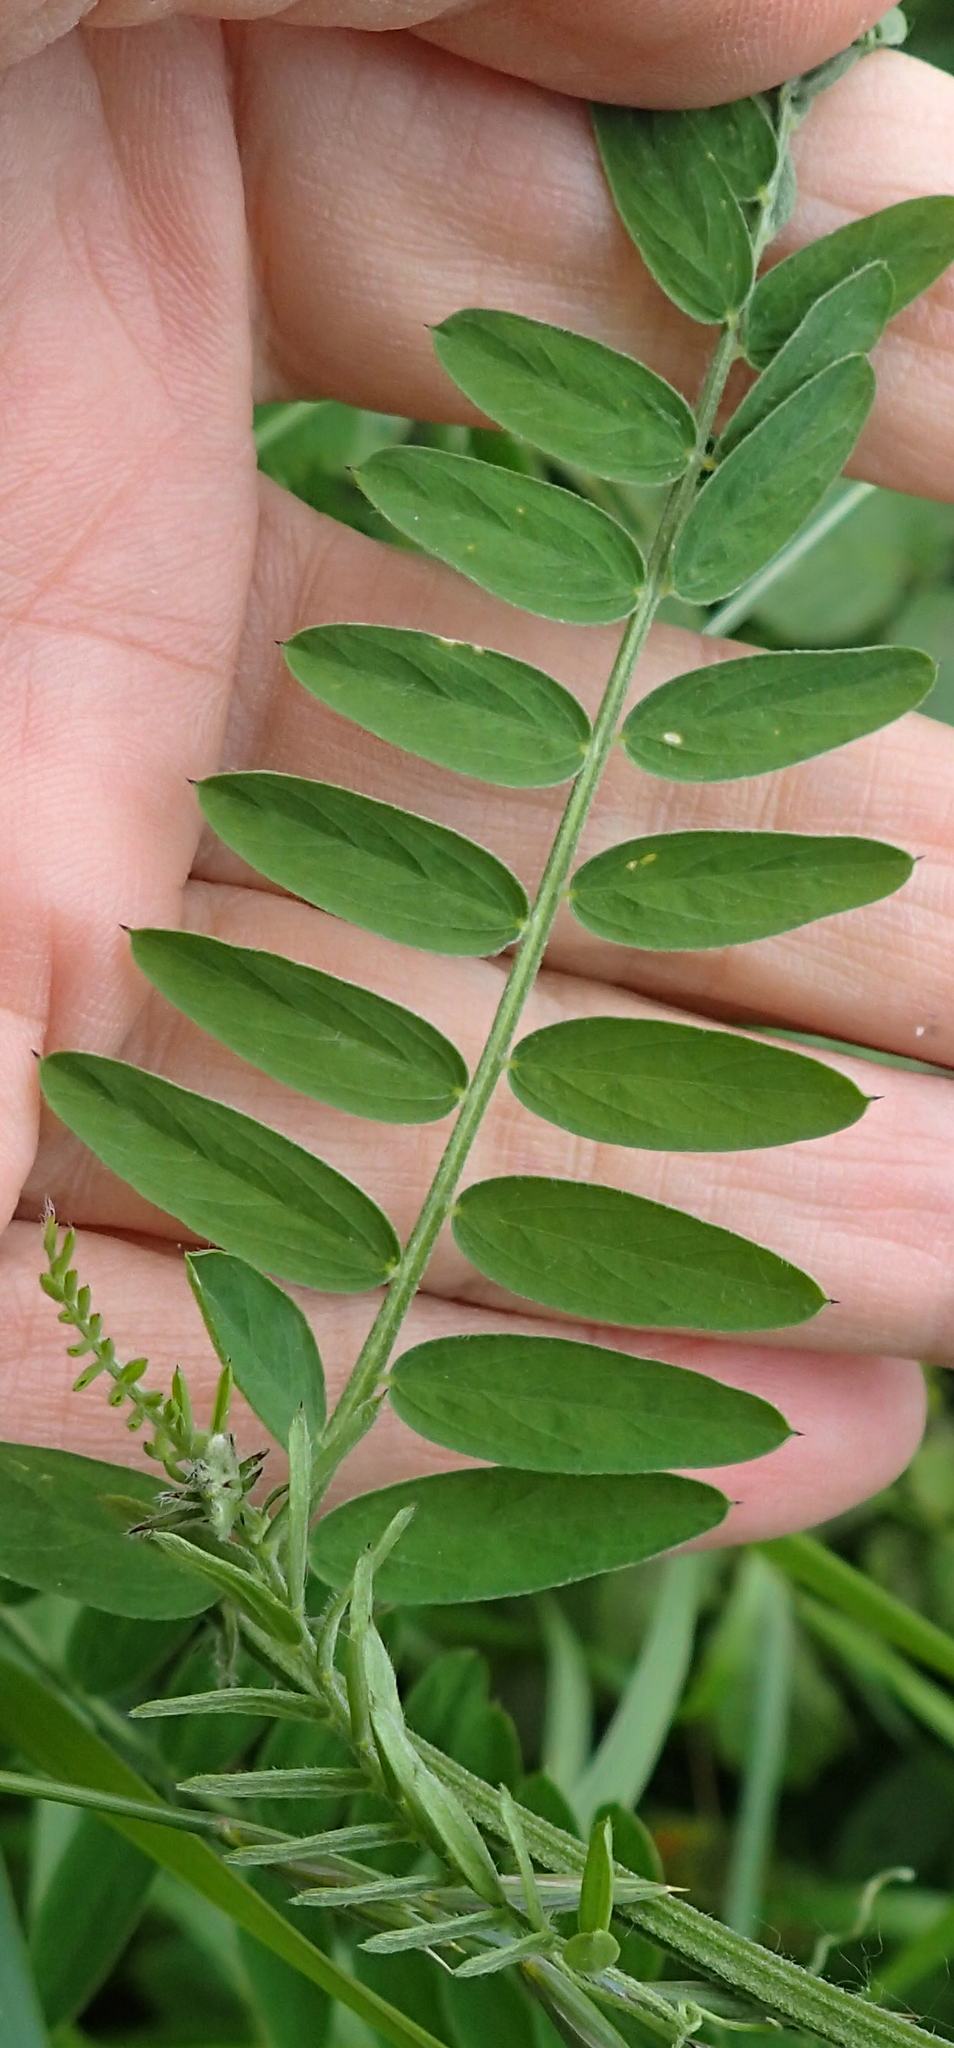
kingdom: Plantae
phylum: Tracheophyta
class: Magnoliopsida
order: Fabales
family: Fabaceae
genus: Vicia
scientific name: Vicia cracca
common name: Bird vetch
